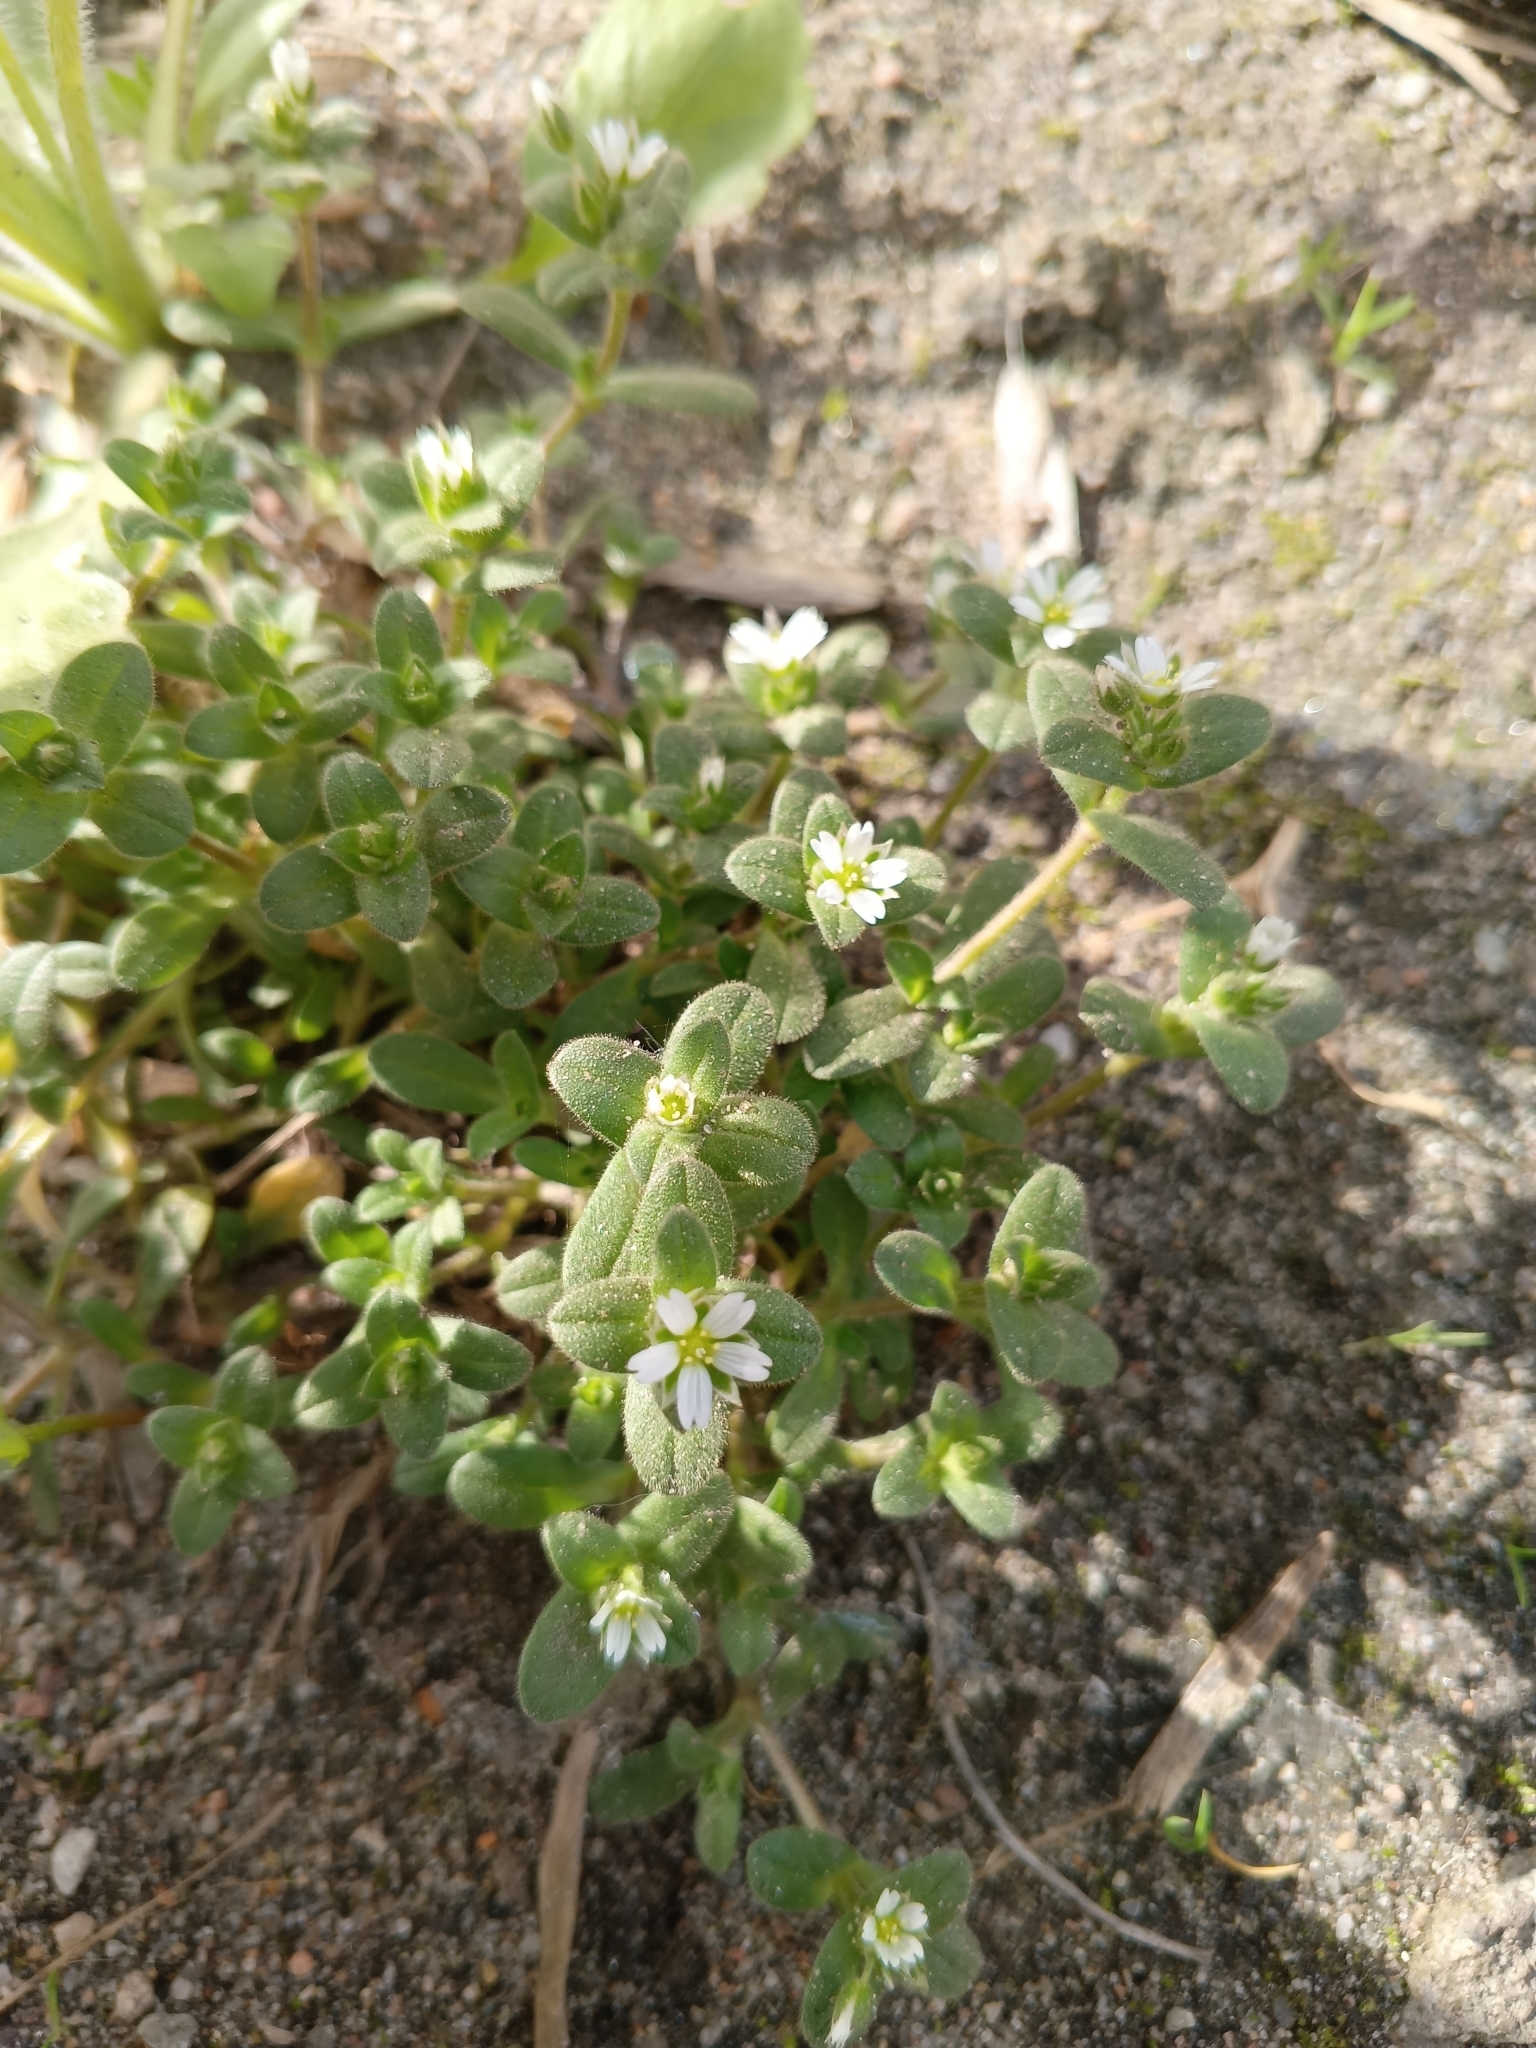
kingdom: Plantae
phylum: Tracheophyta
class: Magnoliopsida
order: Caryophyllales
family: Caryophyllaceae
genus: Cerastium
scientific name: Cerastium semidecandrum
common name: Little mouse-ear
